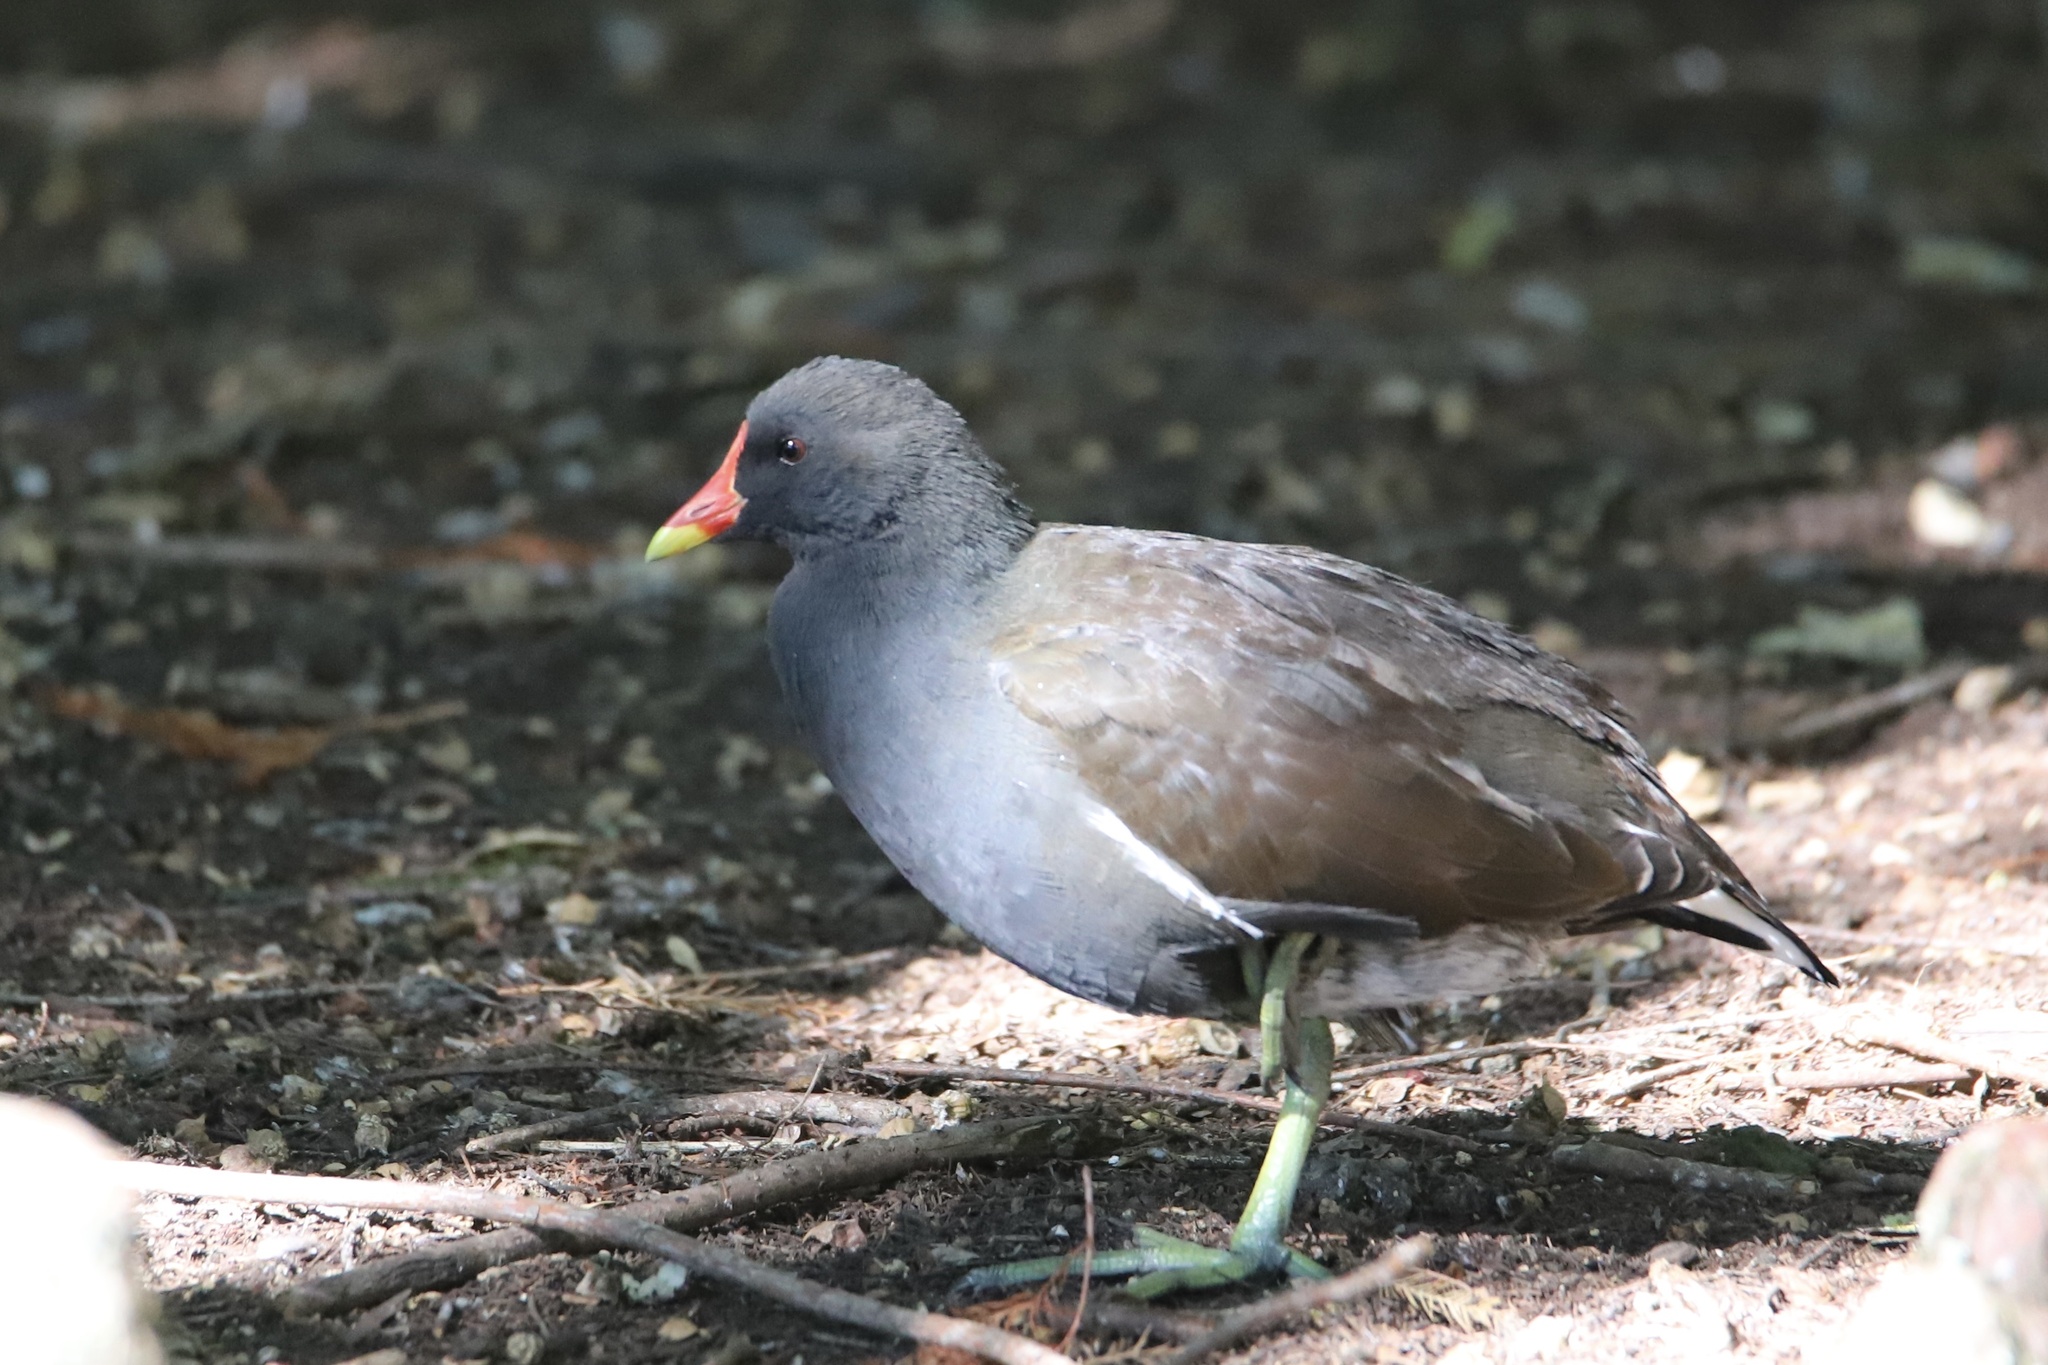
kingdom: Animalia
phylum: Chordata
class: Aves
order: Gruiformes
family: Rallidae
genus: Gallinula
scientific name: Gallinula chloropus
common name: Common moorhen
